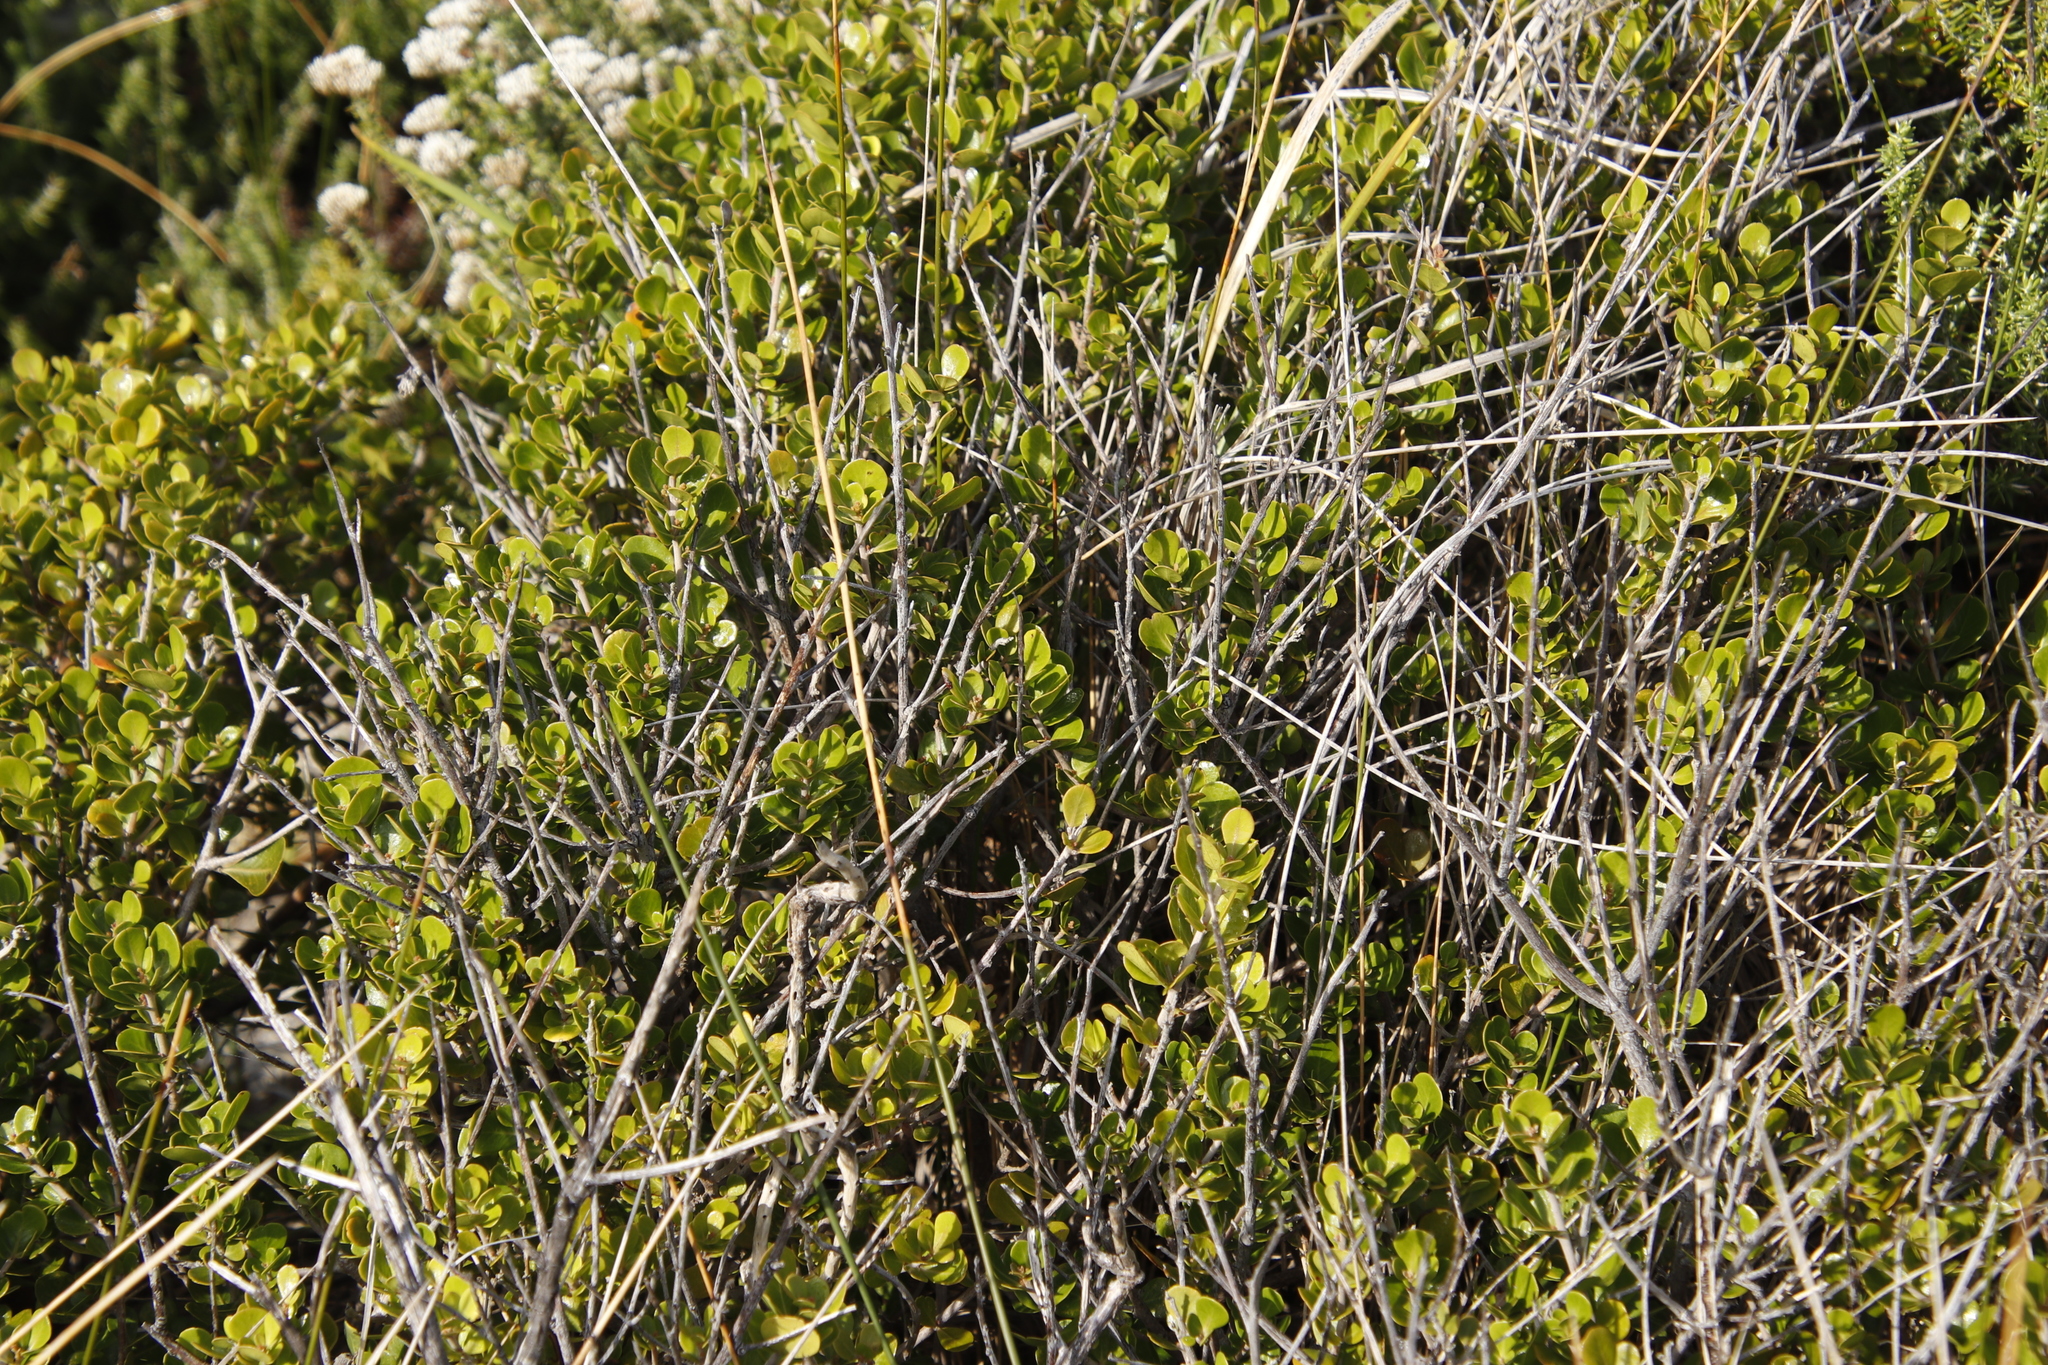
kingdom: Plantae
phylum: Tracheophyta
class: Magnoliopsida
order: Sapindales
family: Anacardiaceae
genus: Searsia
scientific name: Searsia lucida
